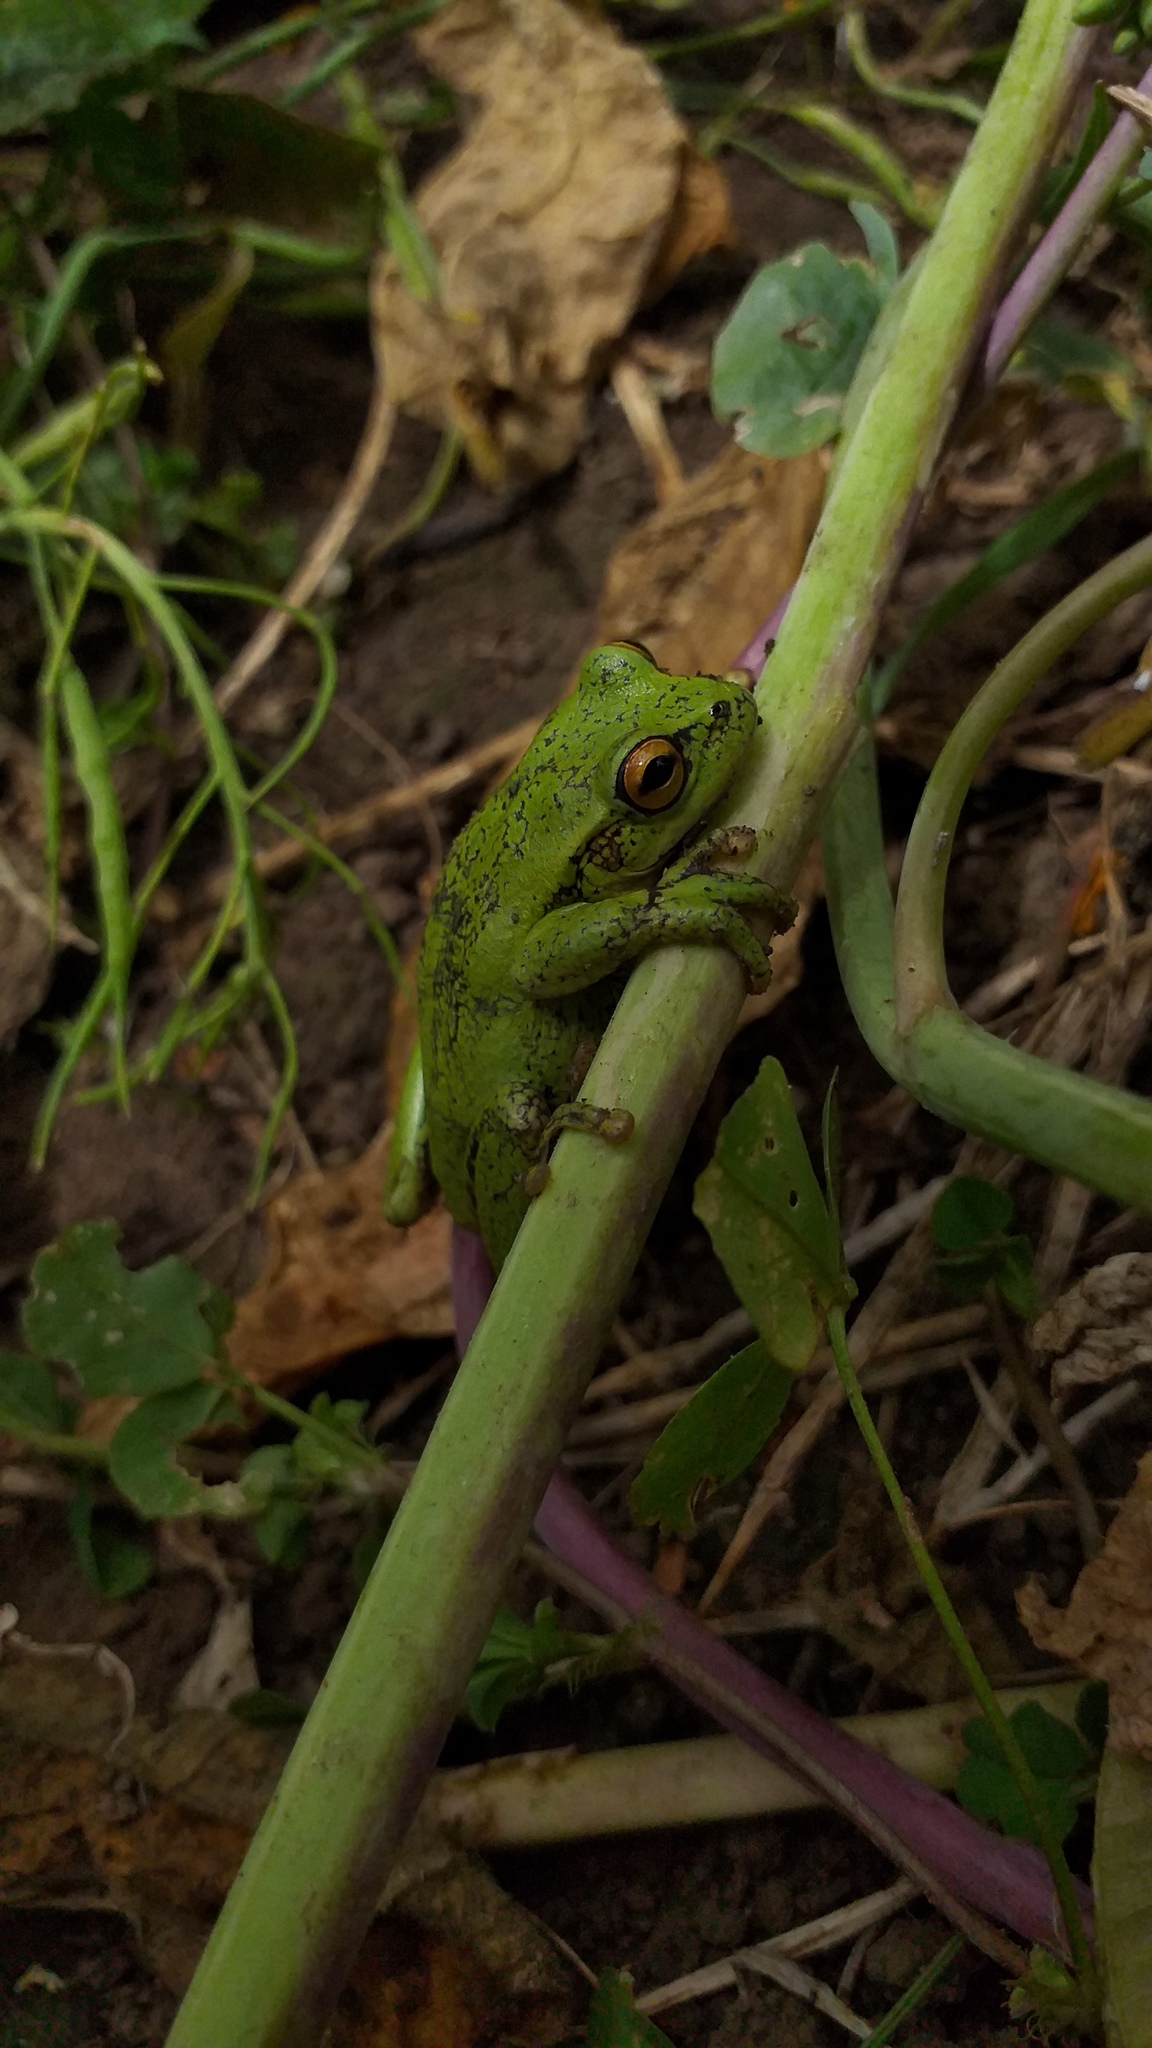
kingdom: Animalia
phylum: Chordata
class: Amphibia
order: Anura
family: Hylidae
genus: Dendropsophus
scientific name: Dendropsophus molitor
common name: Green dotted treefrog
